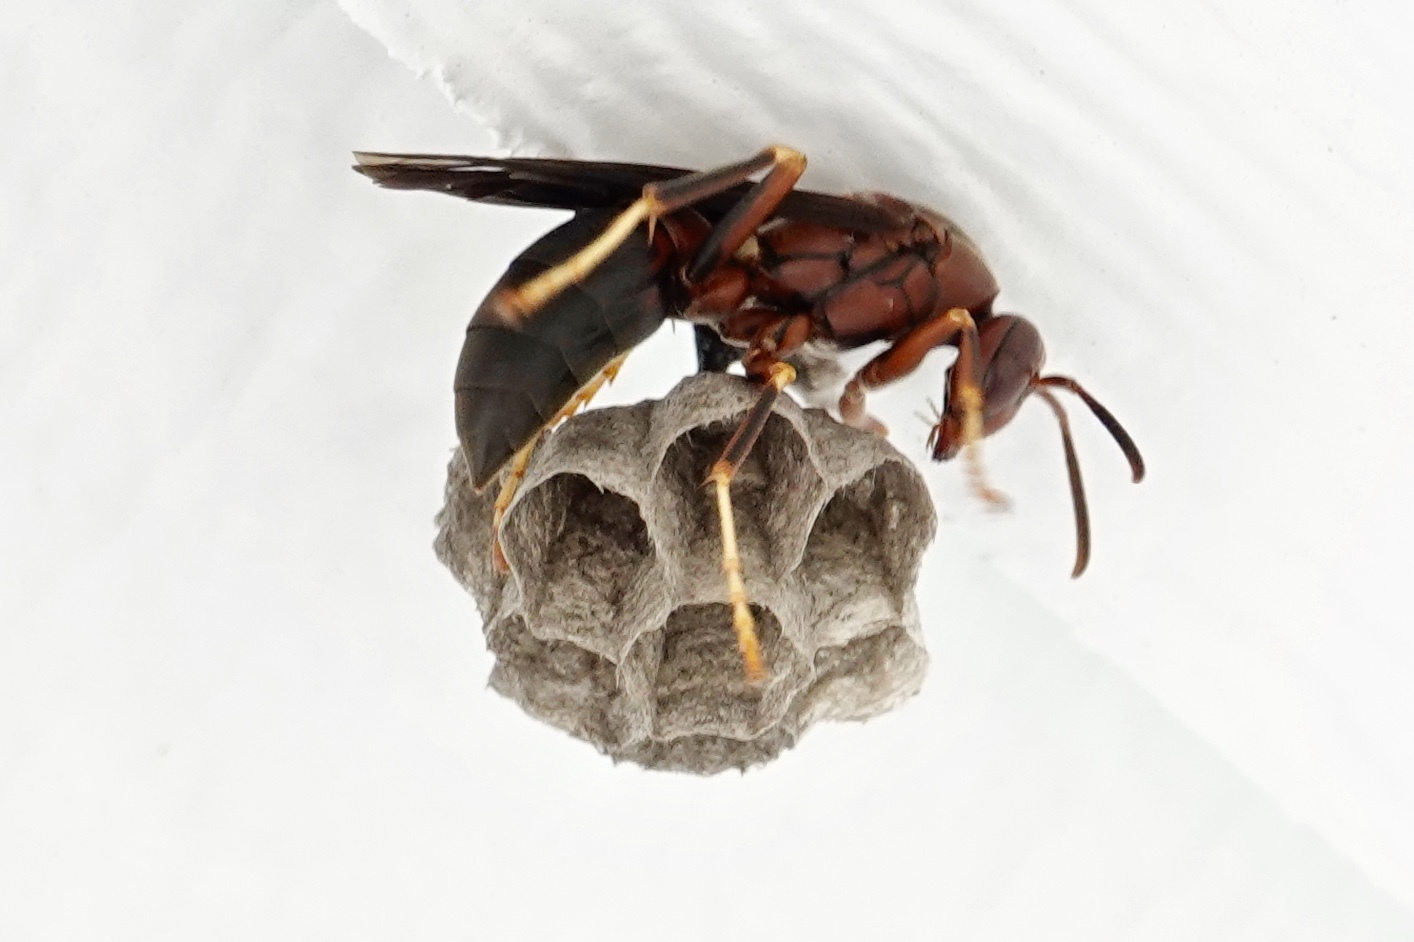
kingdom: Animalia
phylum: Arthropoda
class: Insecta
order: Hymenoptera
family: Eumenidae
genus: Polistes
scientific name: Polistes metricus
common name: Metric paper wasp
